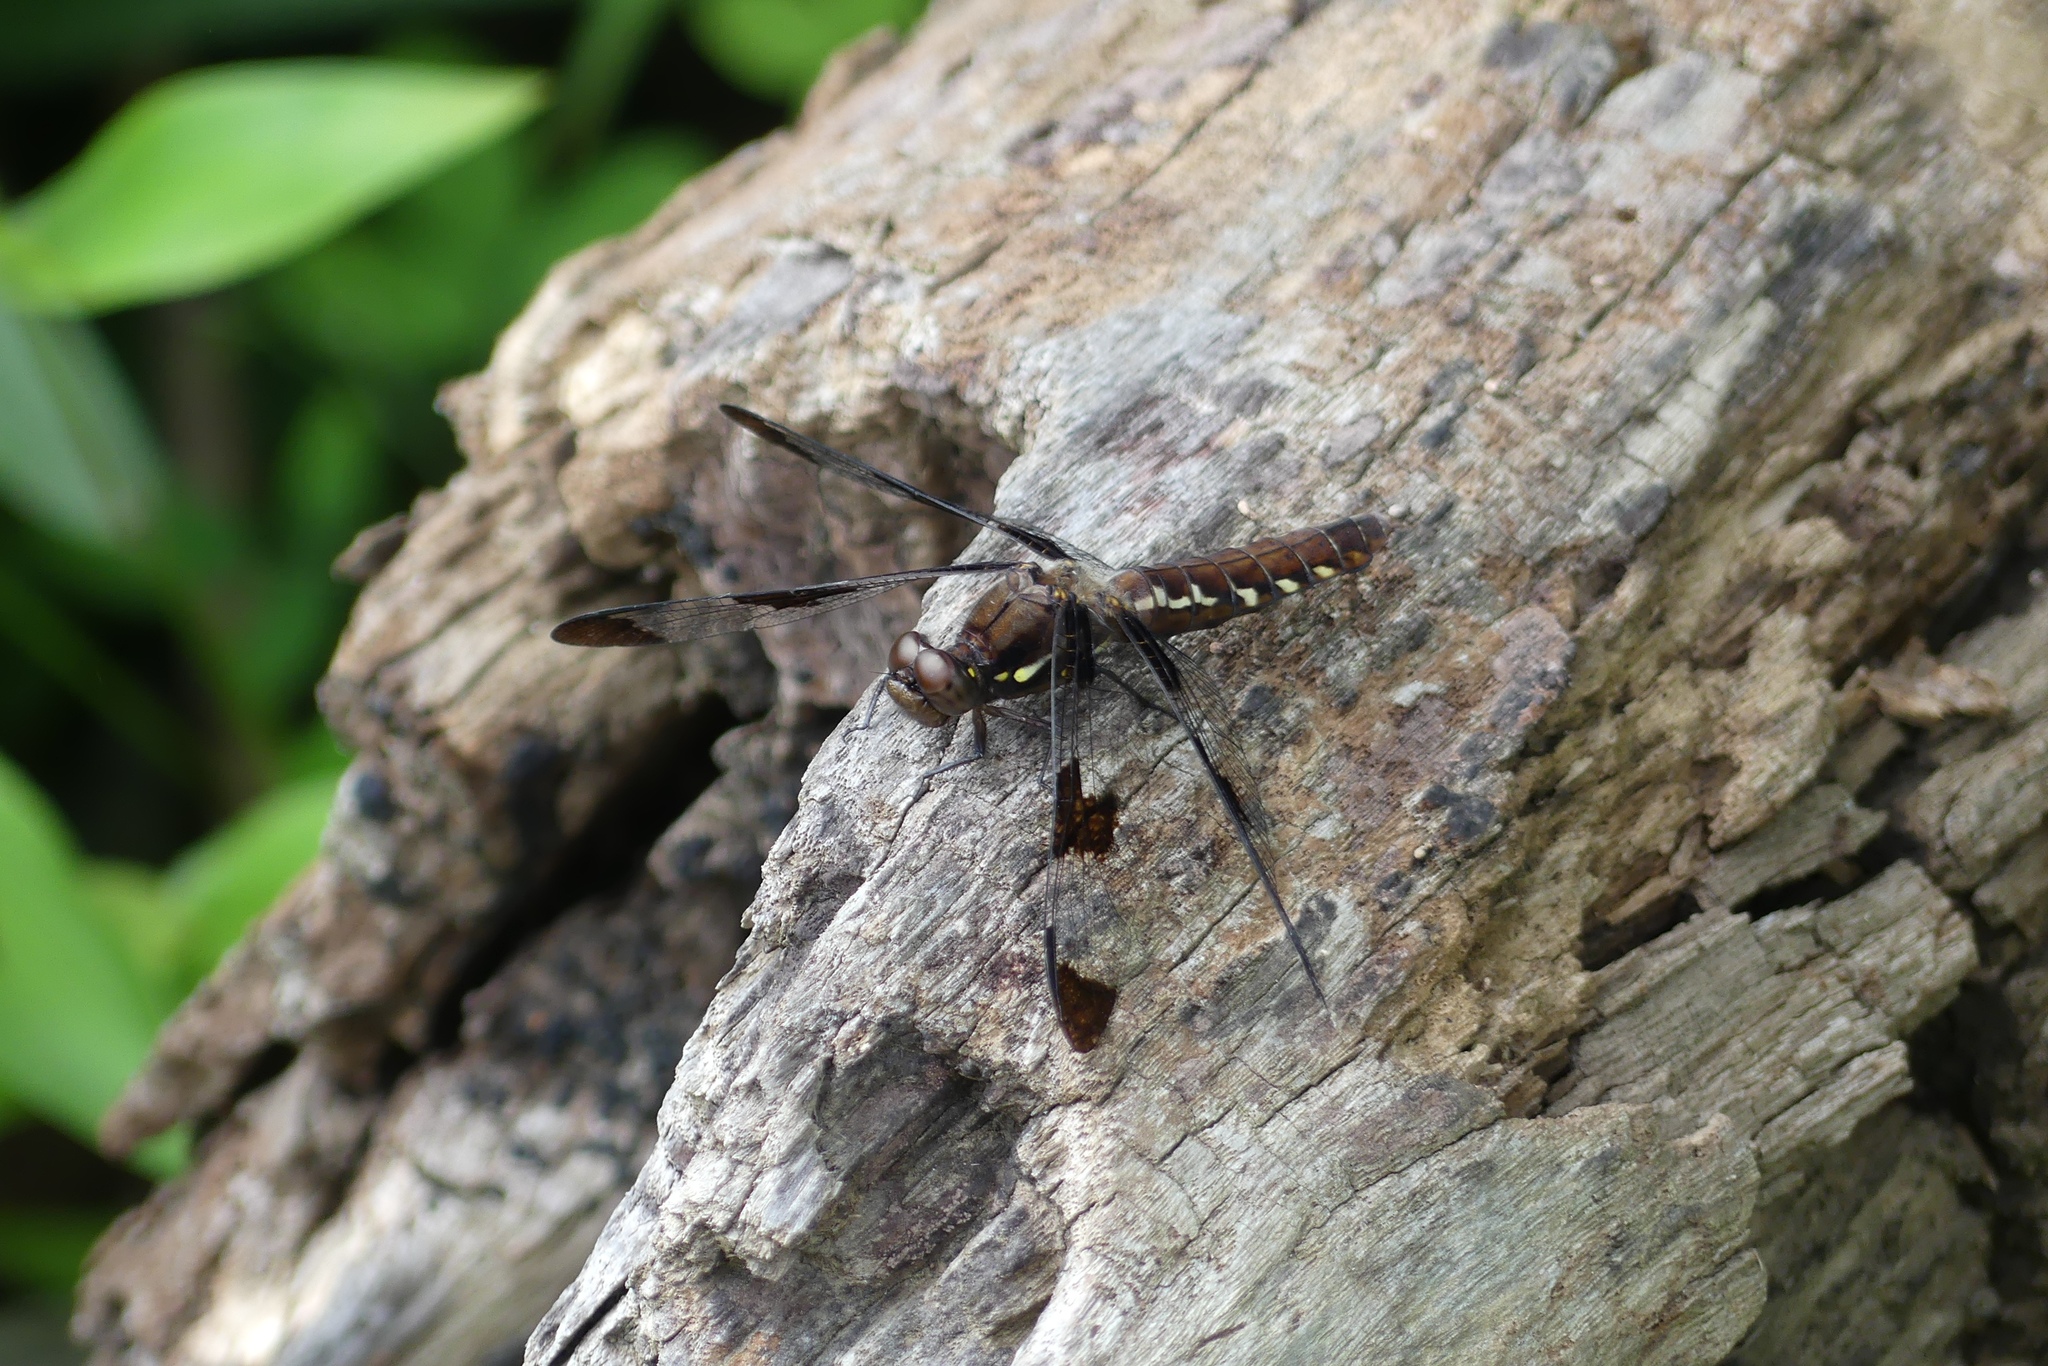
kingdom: Animalia
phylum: Arthropoda
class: Insecta
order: Odonata
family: Libellulidae
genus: Plathemis
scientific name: Plathemis lydia
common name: Common whitetail
